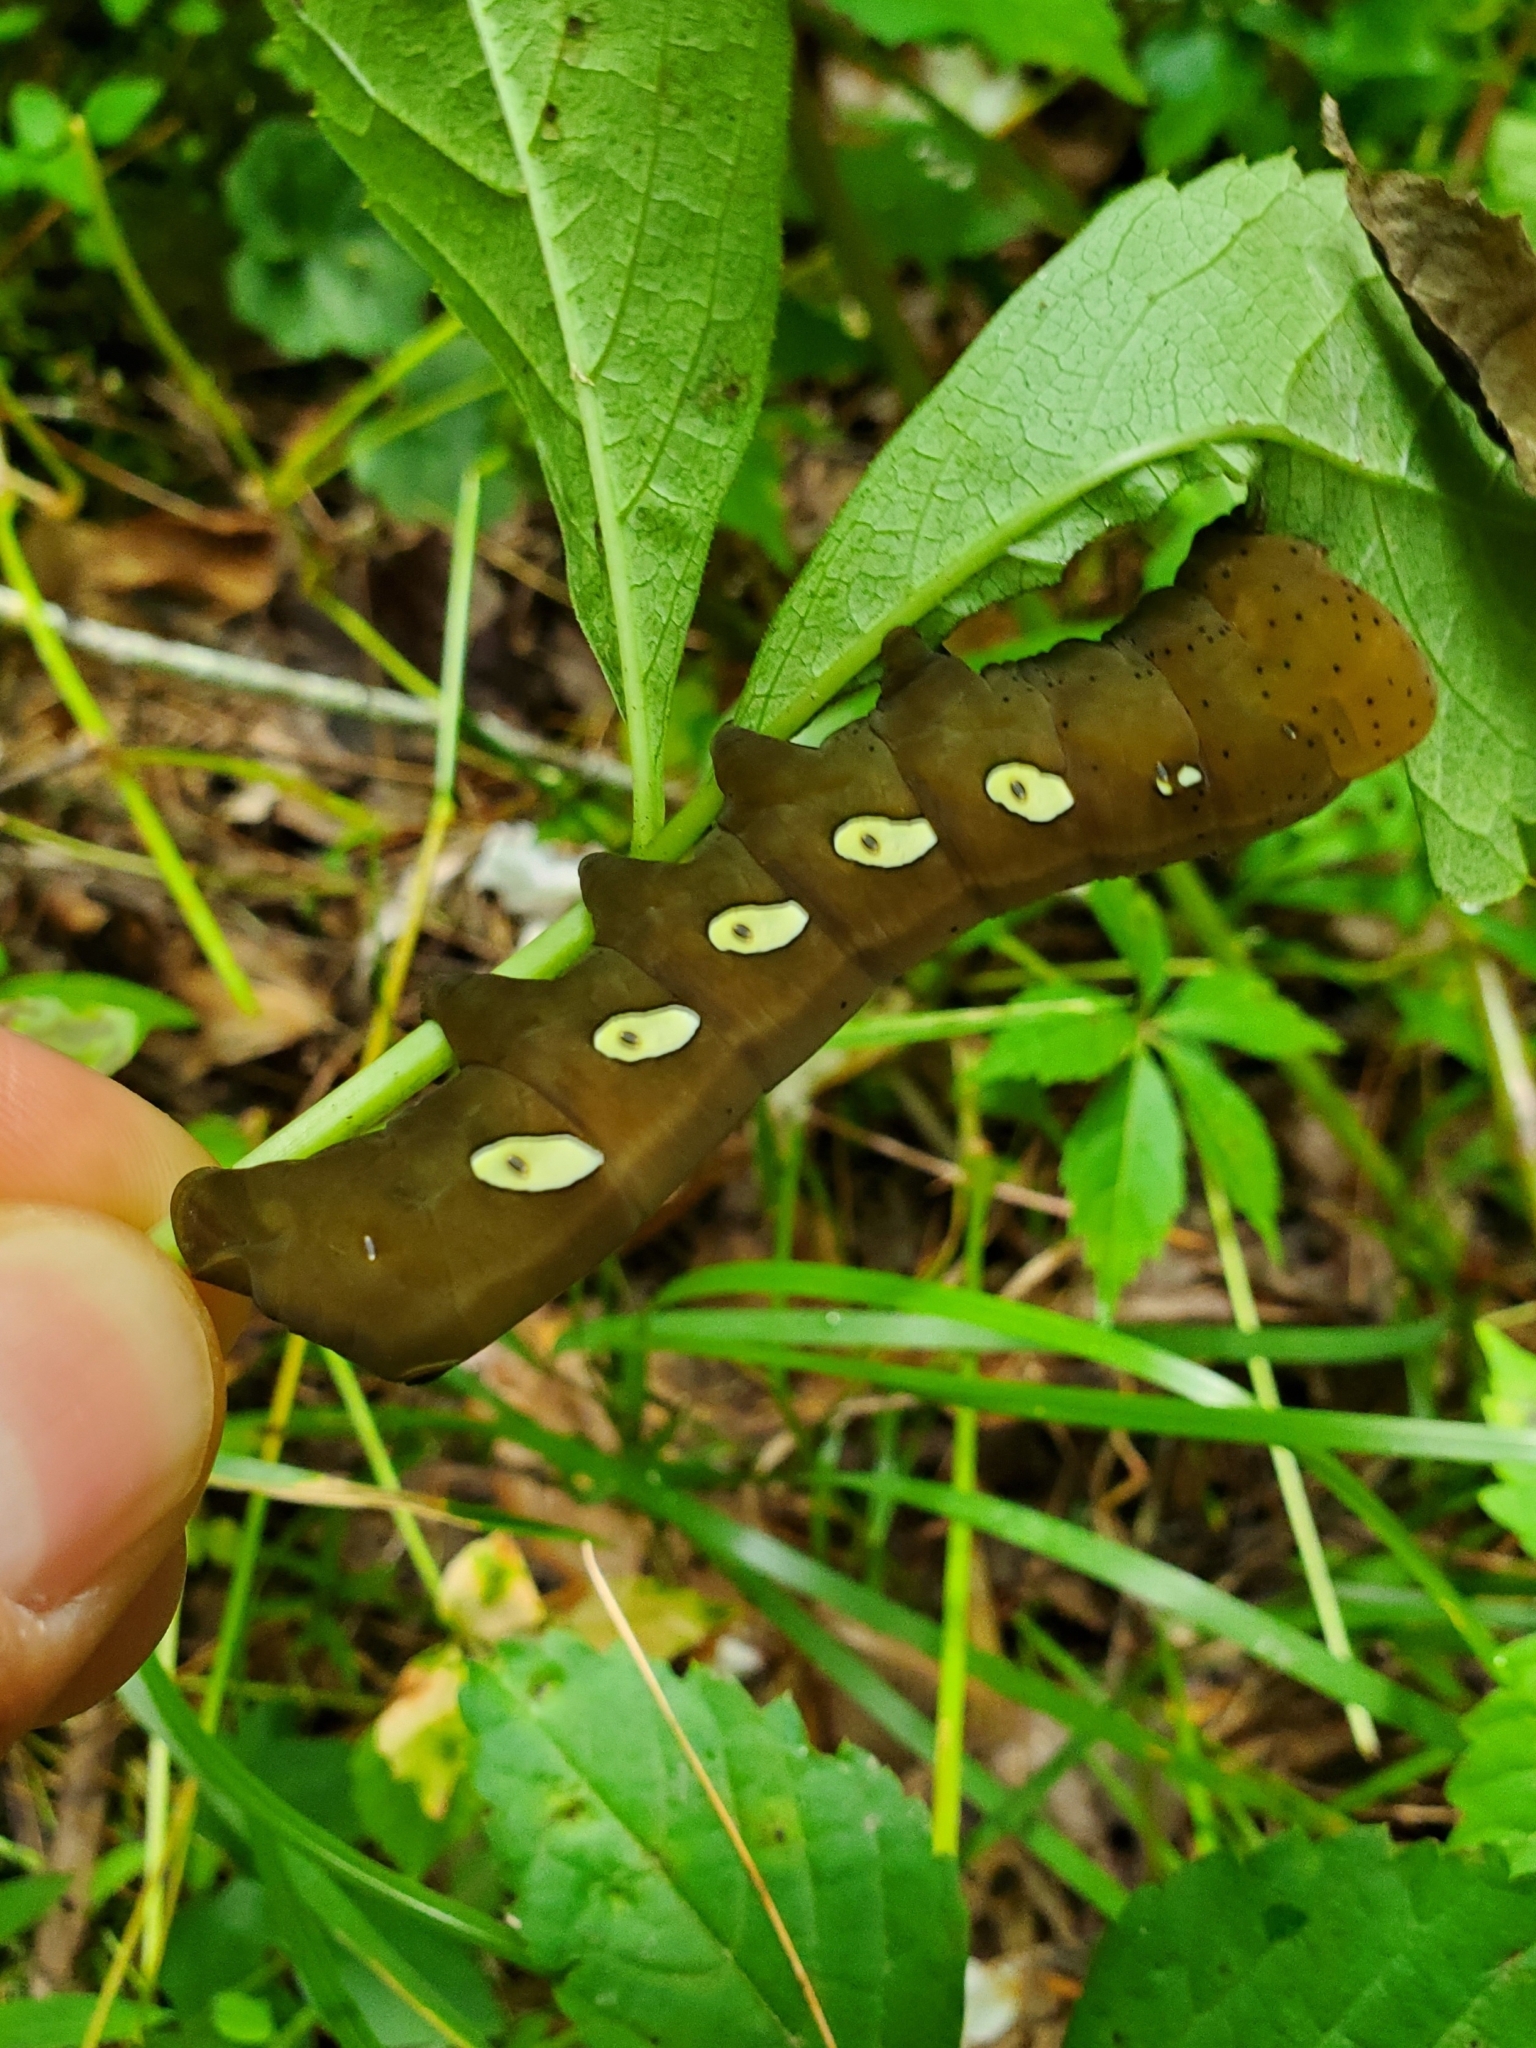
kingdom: Animalia
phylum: Arthropoda
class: Insecta
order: Lepidoptera
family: Sphingidae
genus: Eumorpha
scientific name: Eumorpha pandorus
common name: Pandora sphinx
